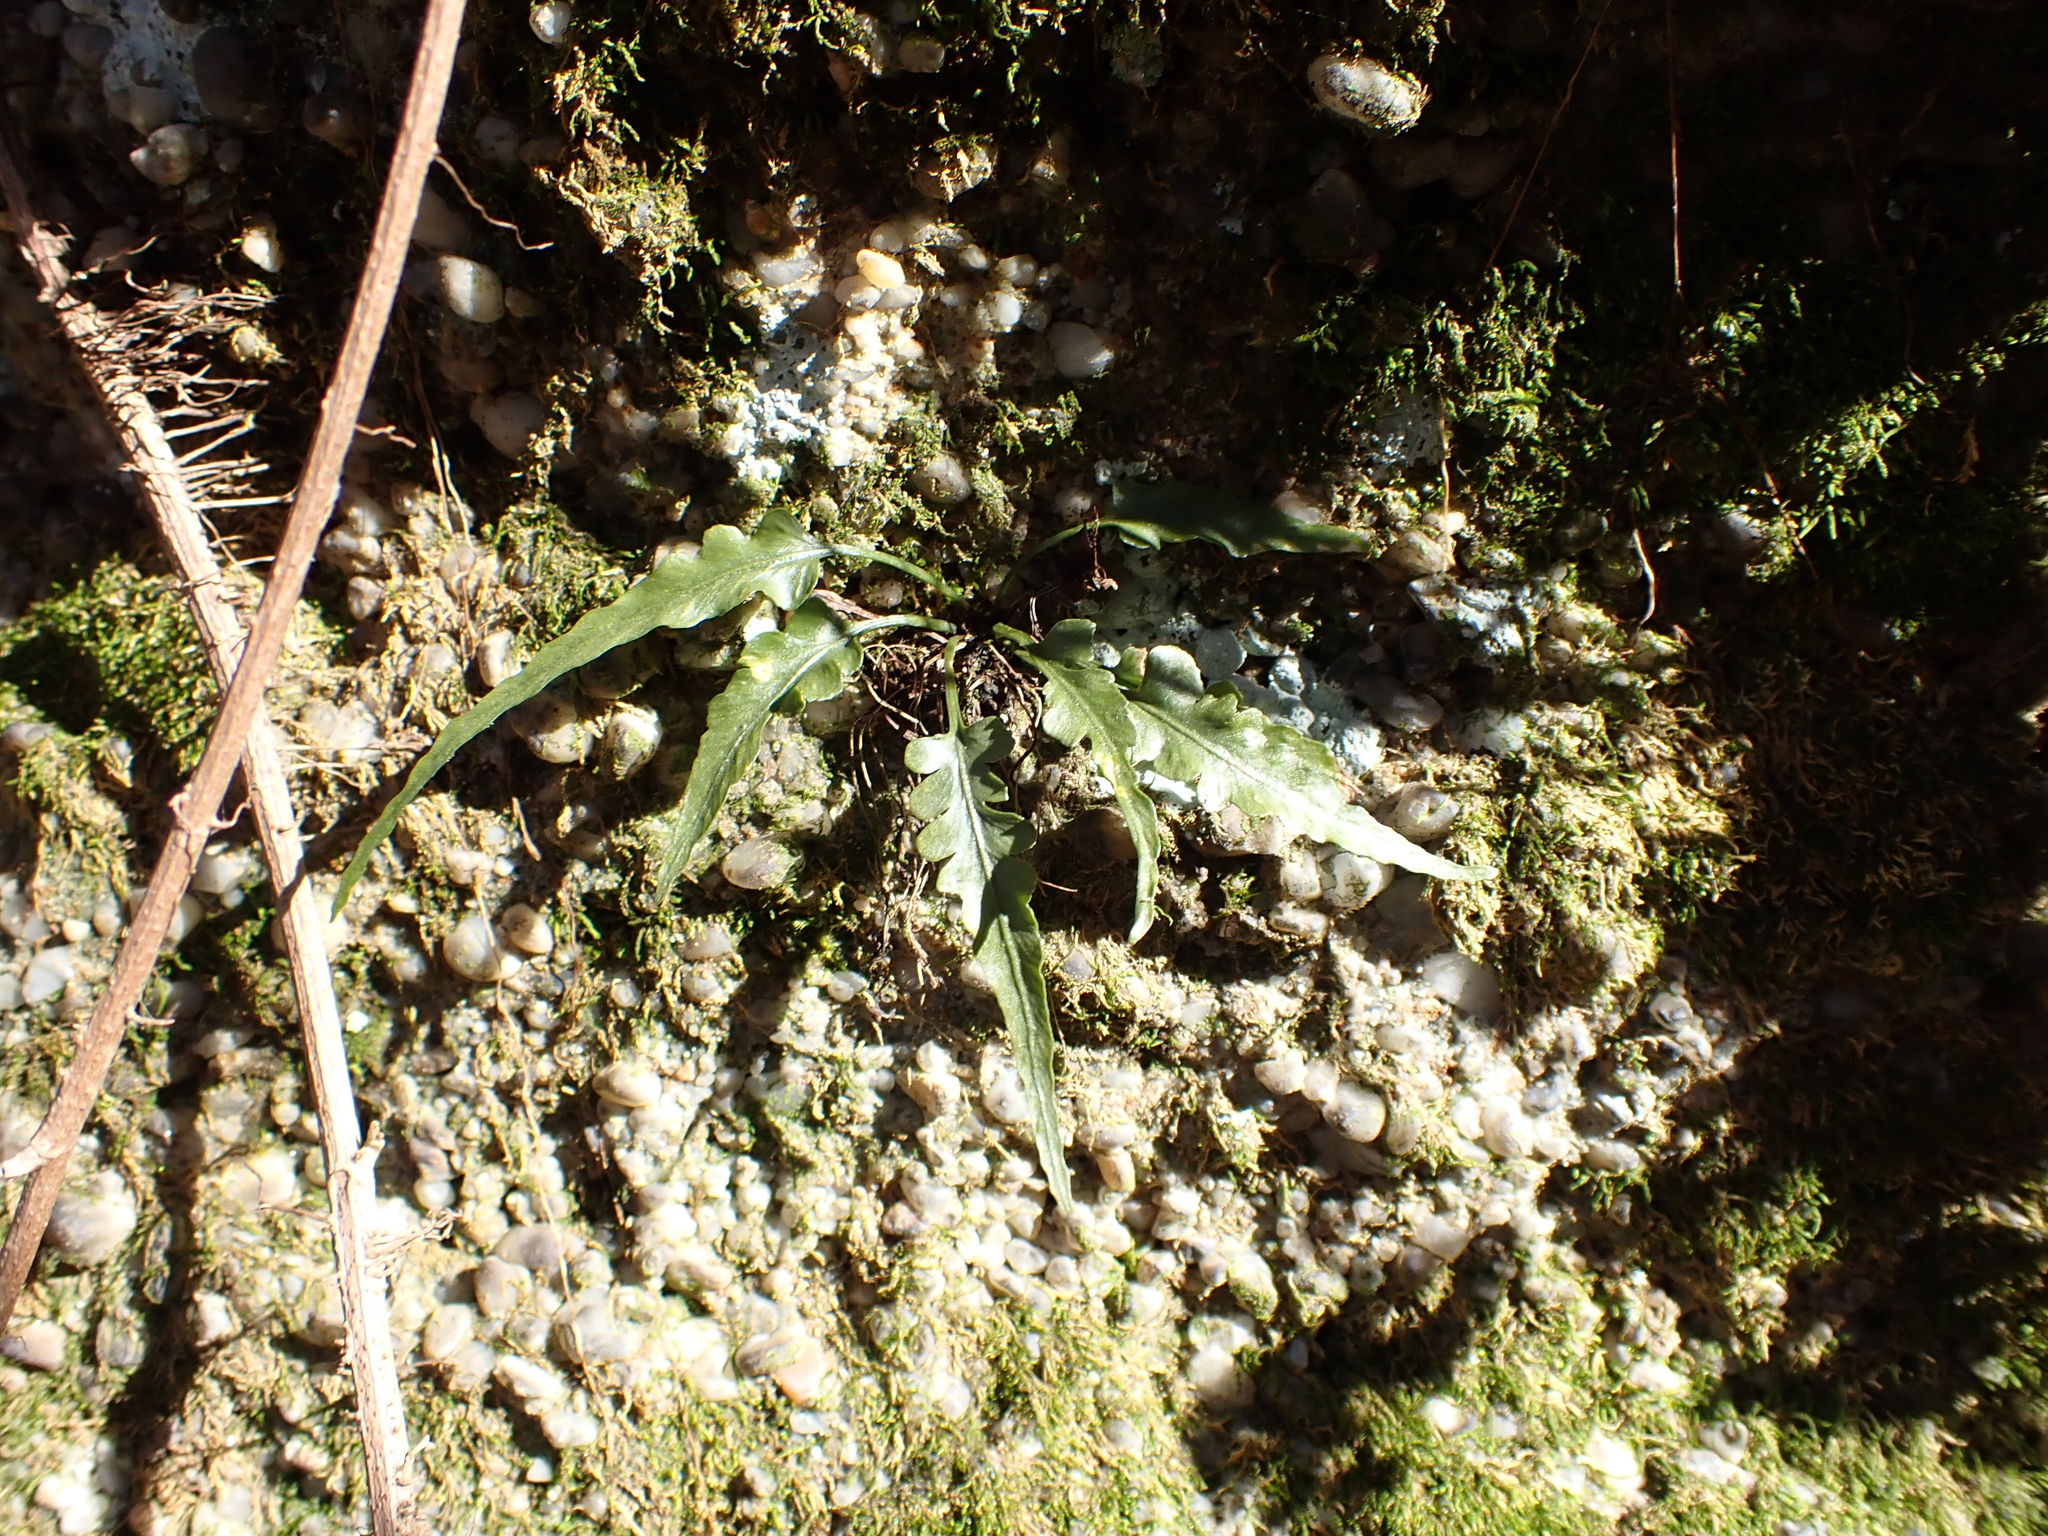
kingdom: Plantae
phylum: Tracheophyta
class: Polypodiopsida
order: Polypodiales
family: Aspleniaceae
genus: Asplenium
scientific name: Asplenium pinnatifidum
